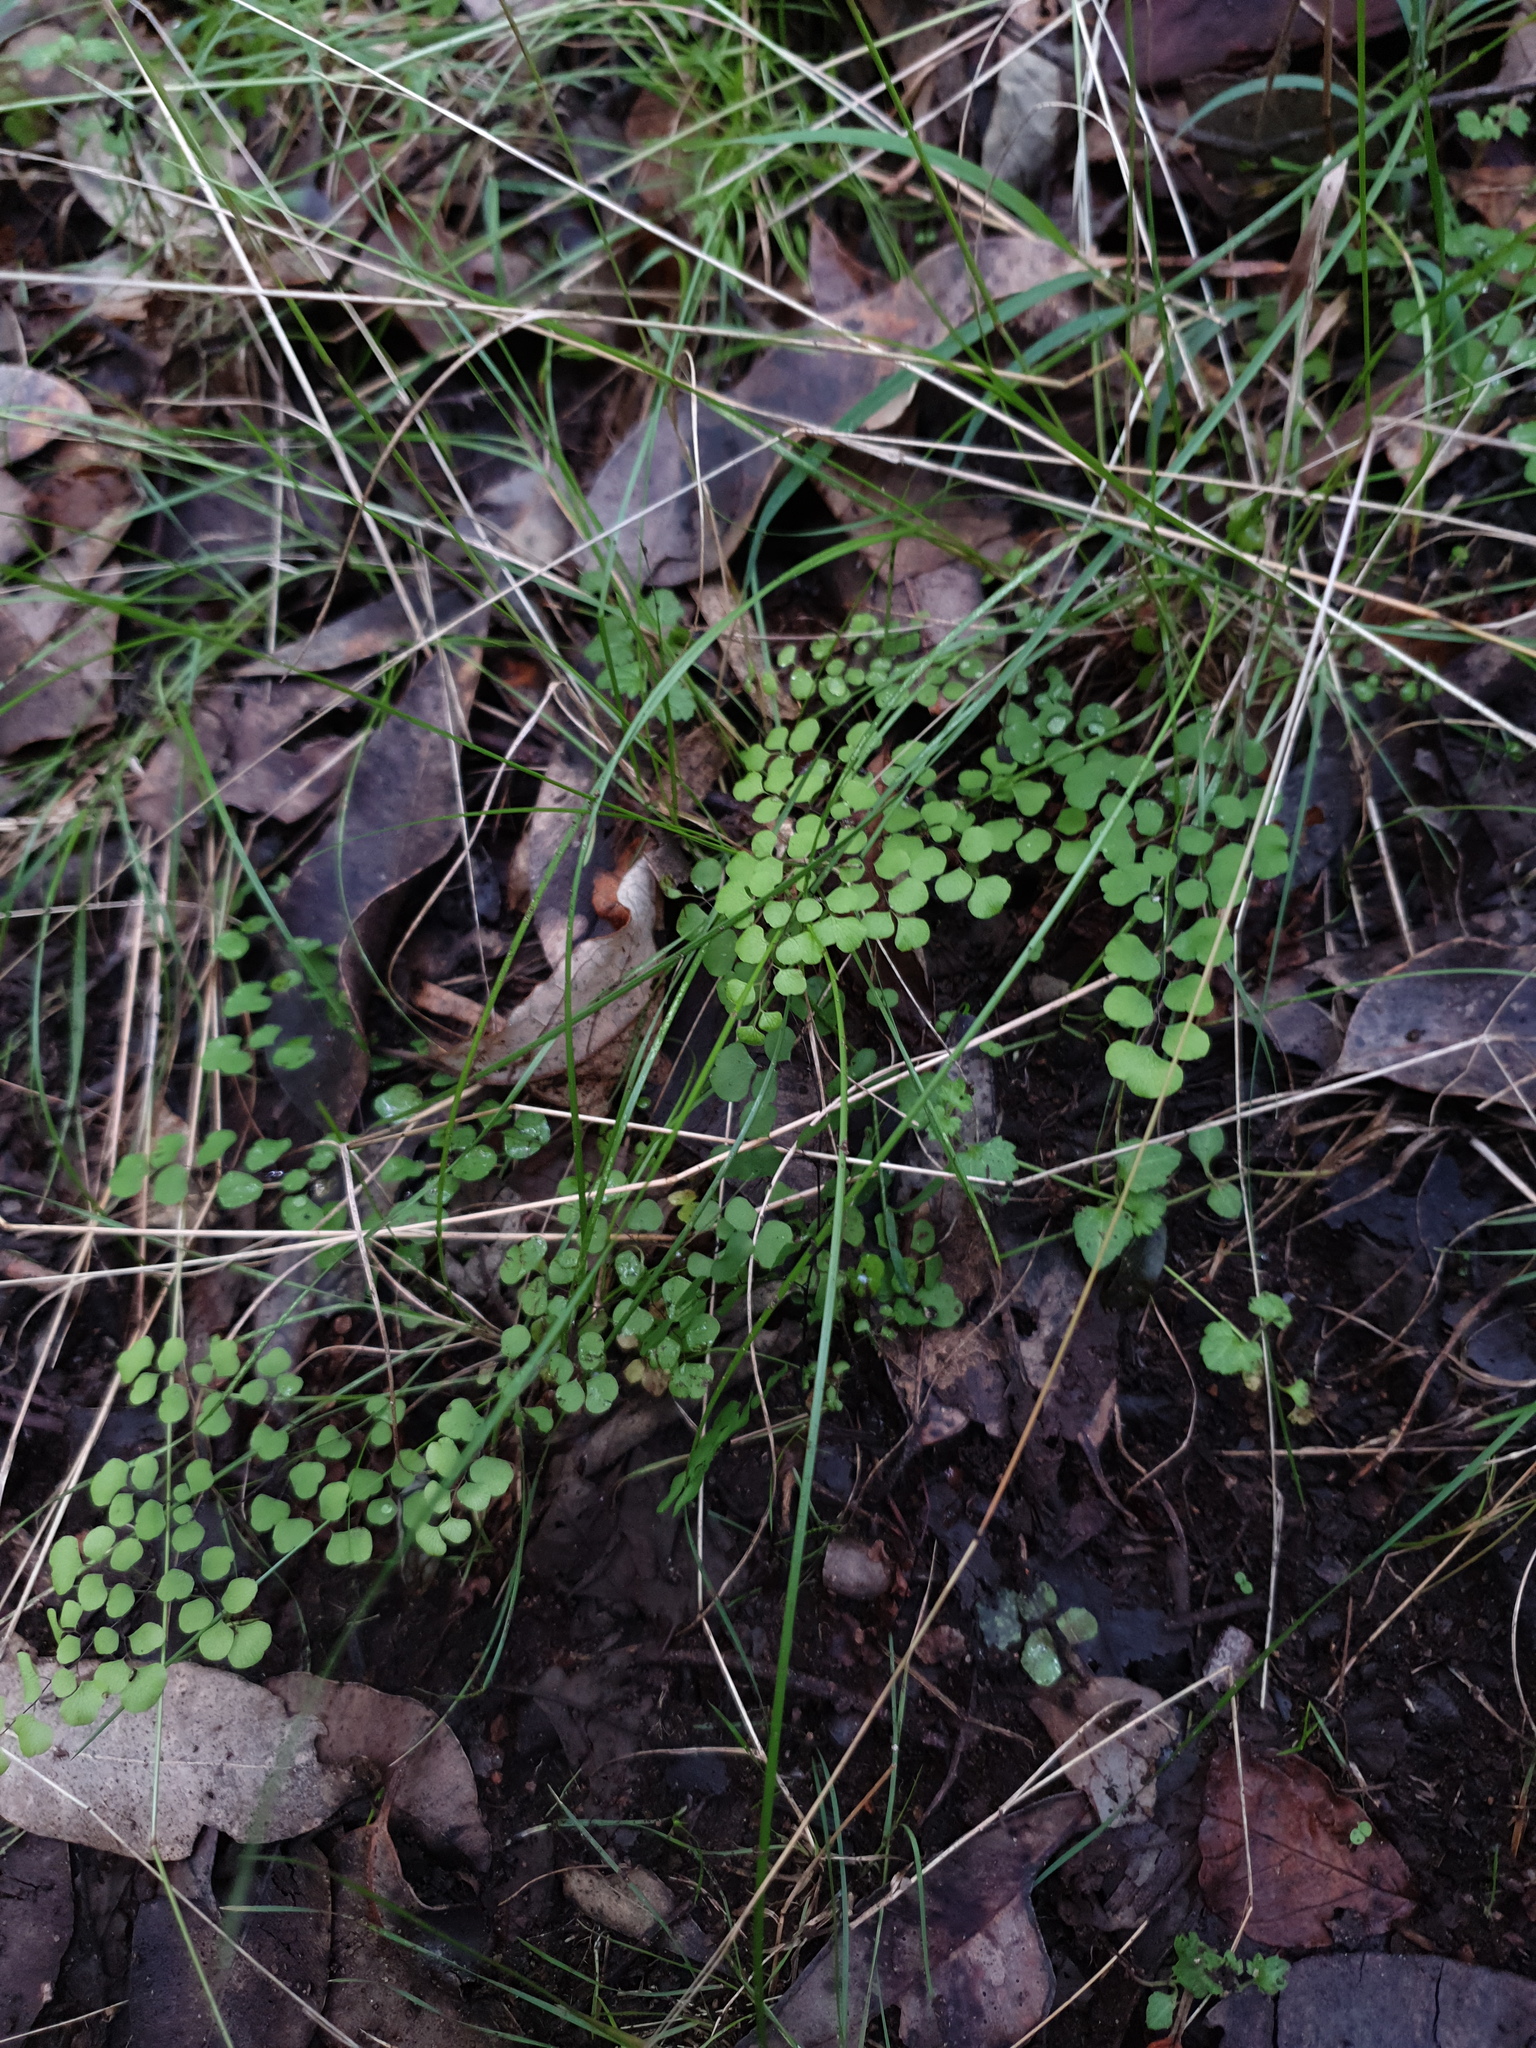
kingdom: Plantae
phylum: Tracheophyta
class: Polypodiopsida
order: Polypodiales
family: Pteridaceae
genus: Adiantum
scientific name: Adiantum aethiopicum
